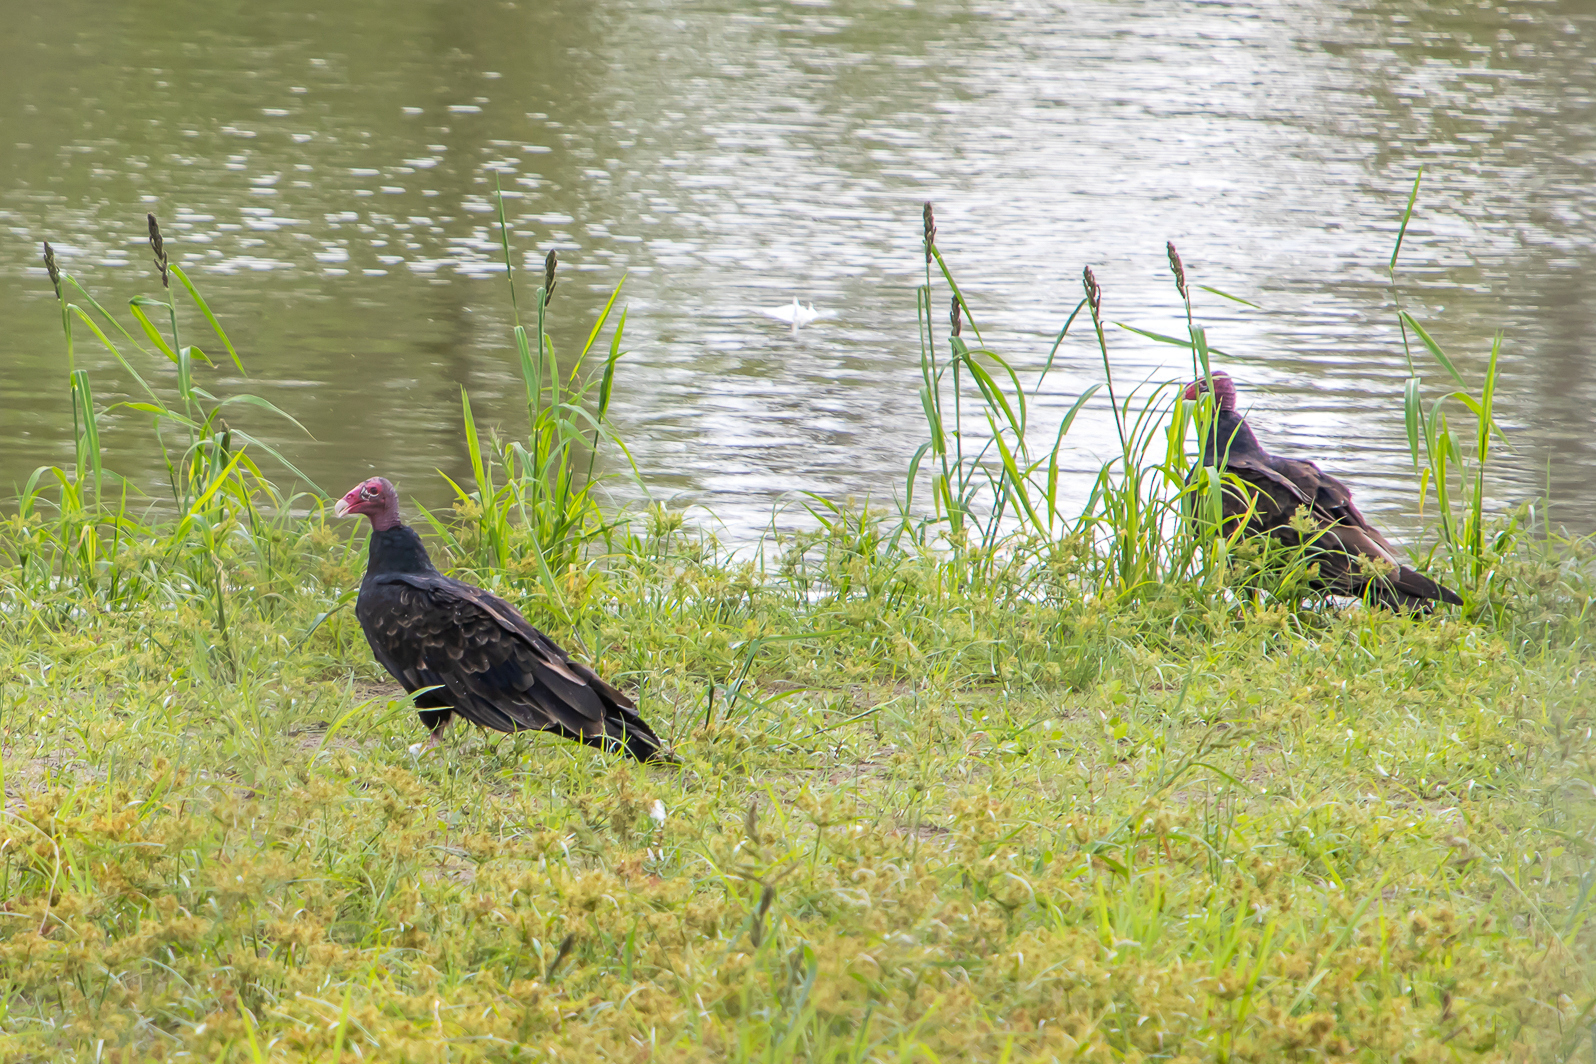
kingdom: Animalia
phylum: Chordata
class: Aves
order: Accipitriformes
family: Cathartidae
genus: Cathartes
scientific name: Cathartes aura
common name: Turkey vulture
